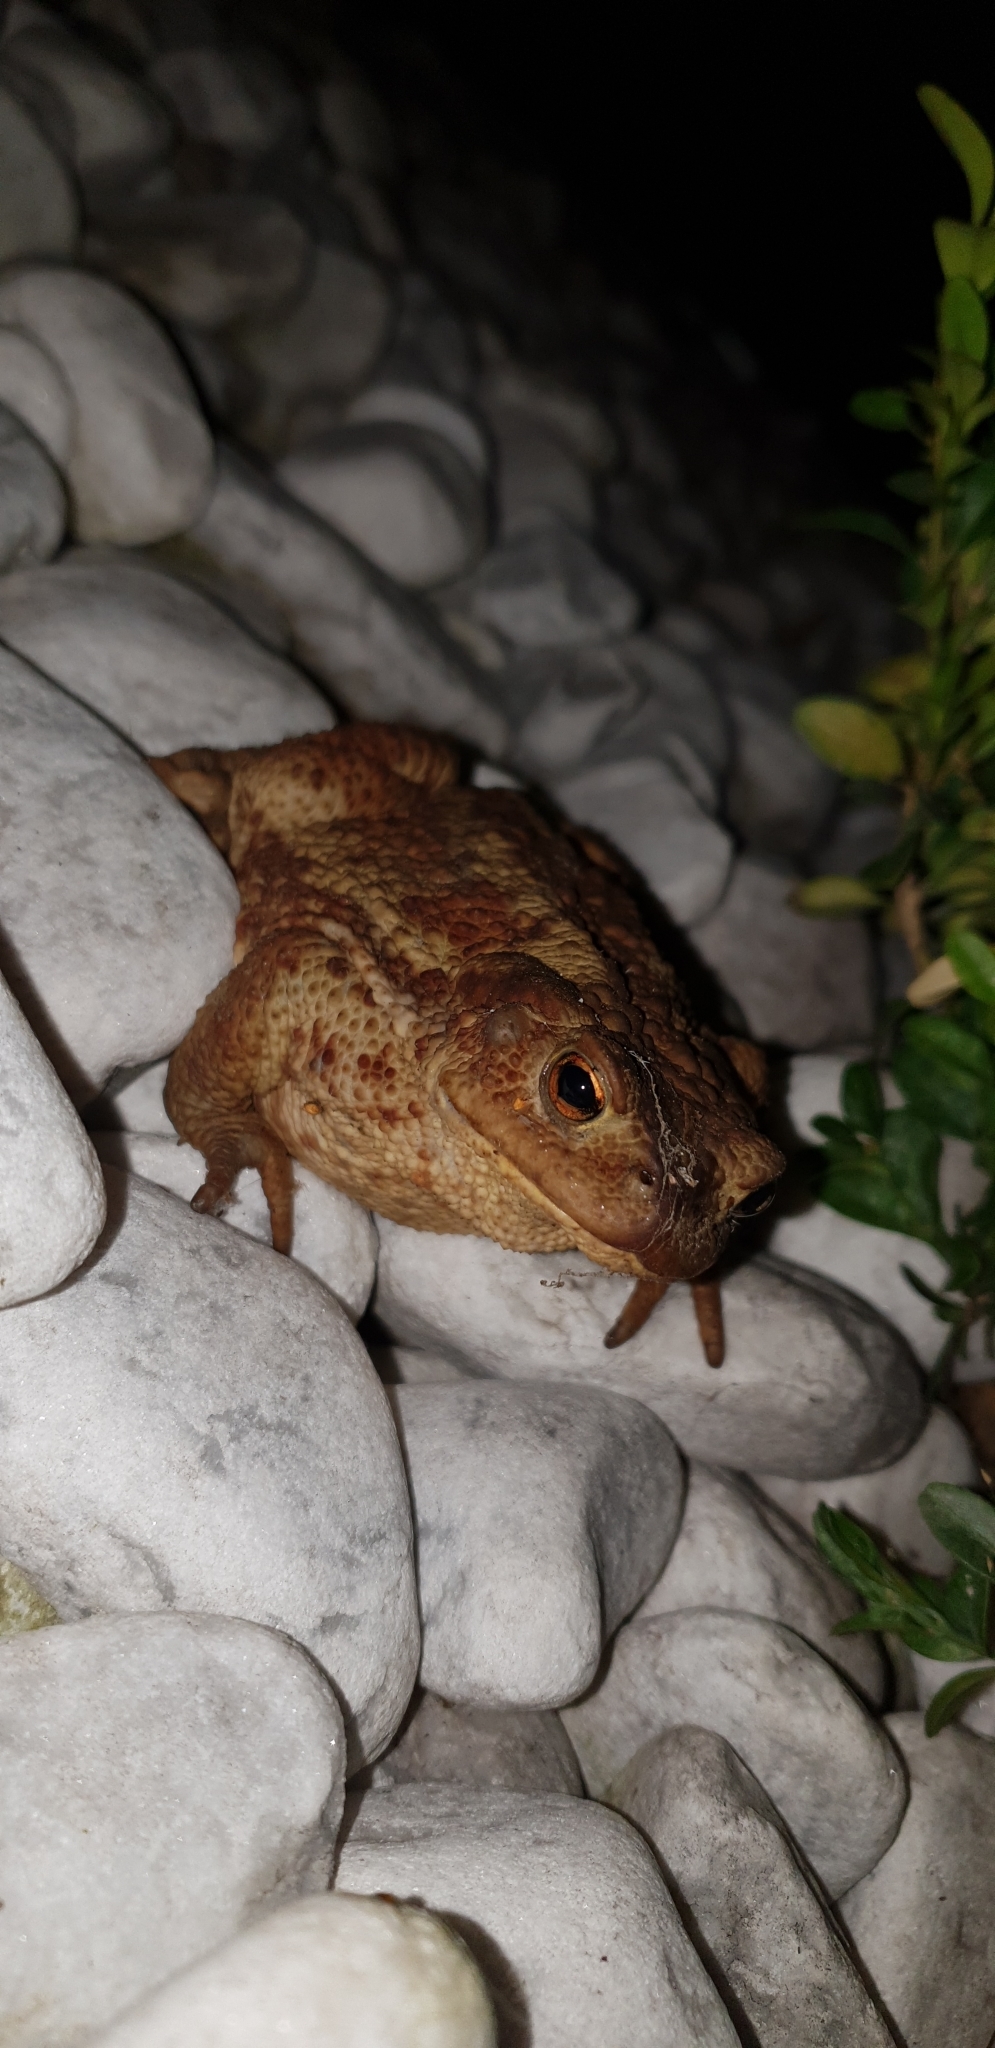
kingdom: Animalia
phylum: Chordata
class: Amphibia
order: Anura
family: Bufonidae
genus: Bufo
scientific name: Bufo bufo
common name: Common toad
